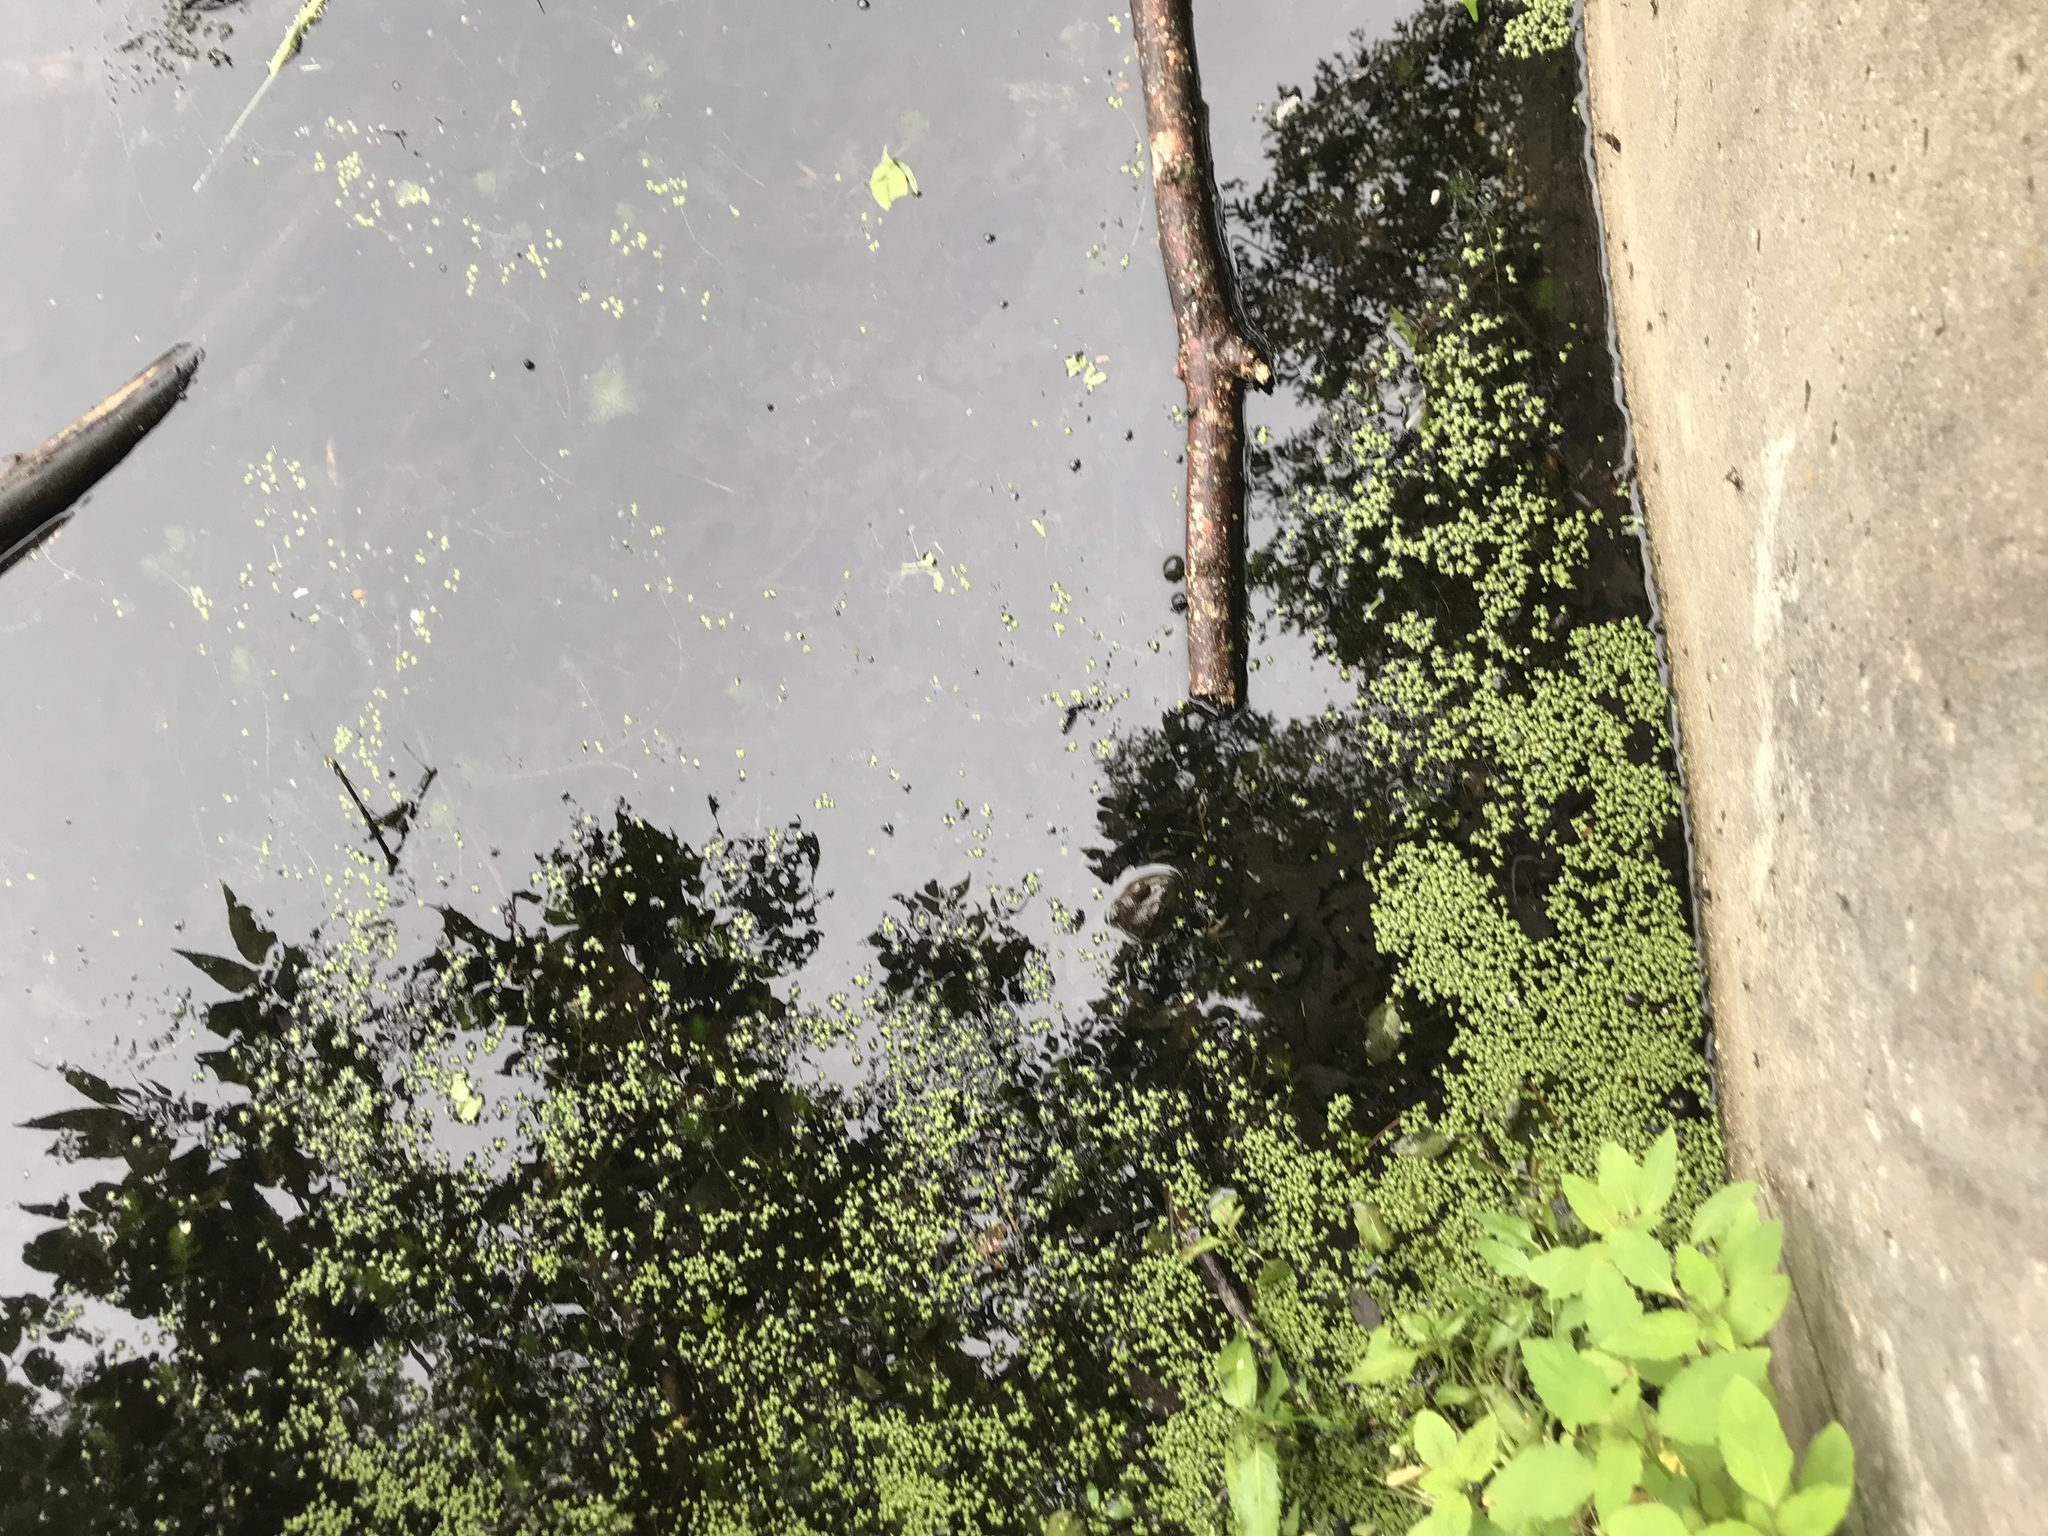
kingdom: Animalia
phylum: Chordata
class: Amphibia
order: Anura
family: Ranidae
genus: Lithobates
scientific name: Lithobates catesbeianus
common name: American bullfrog
